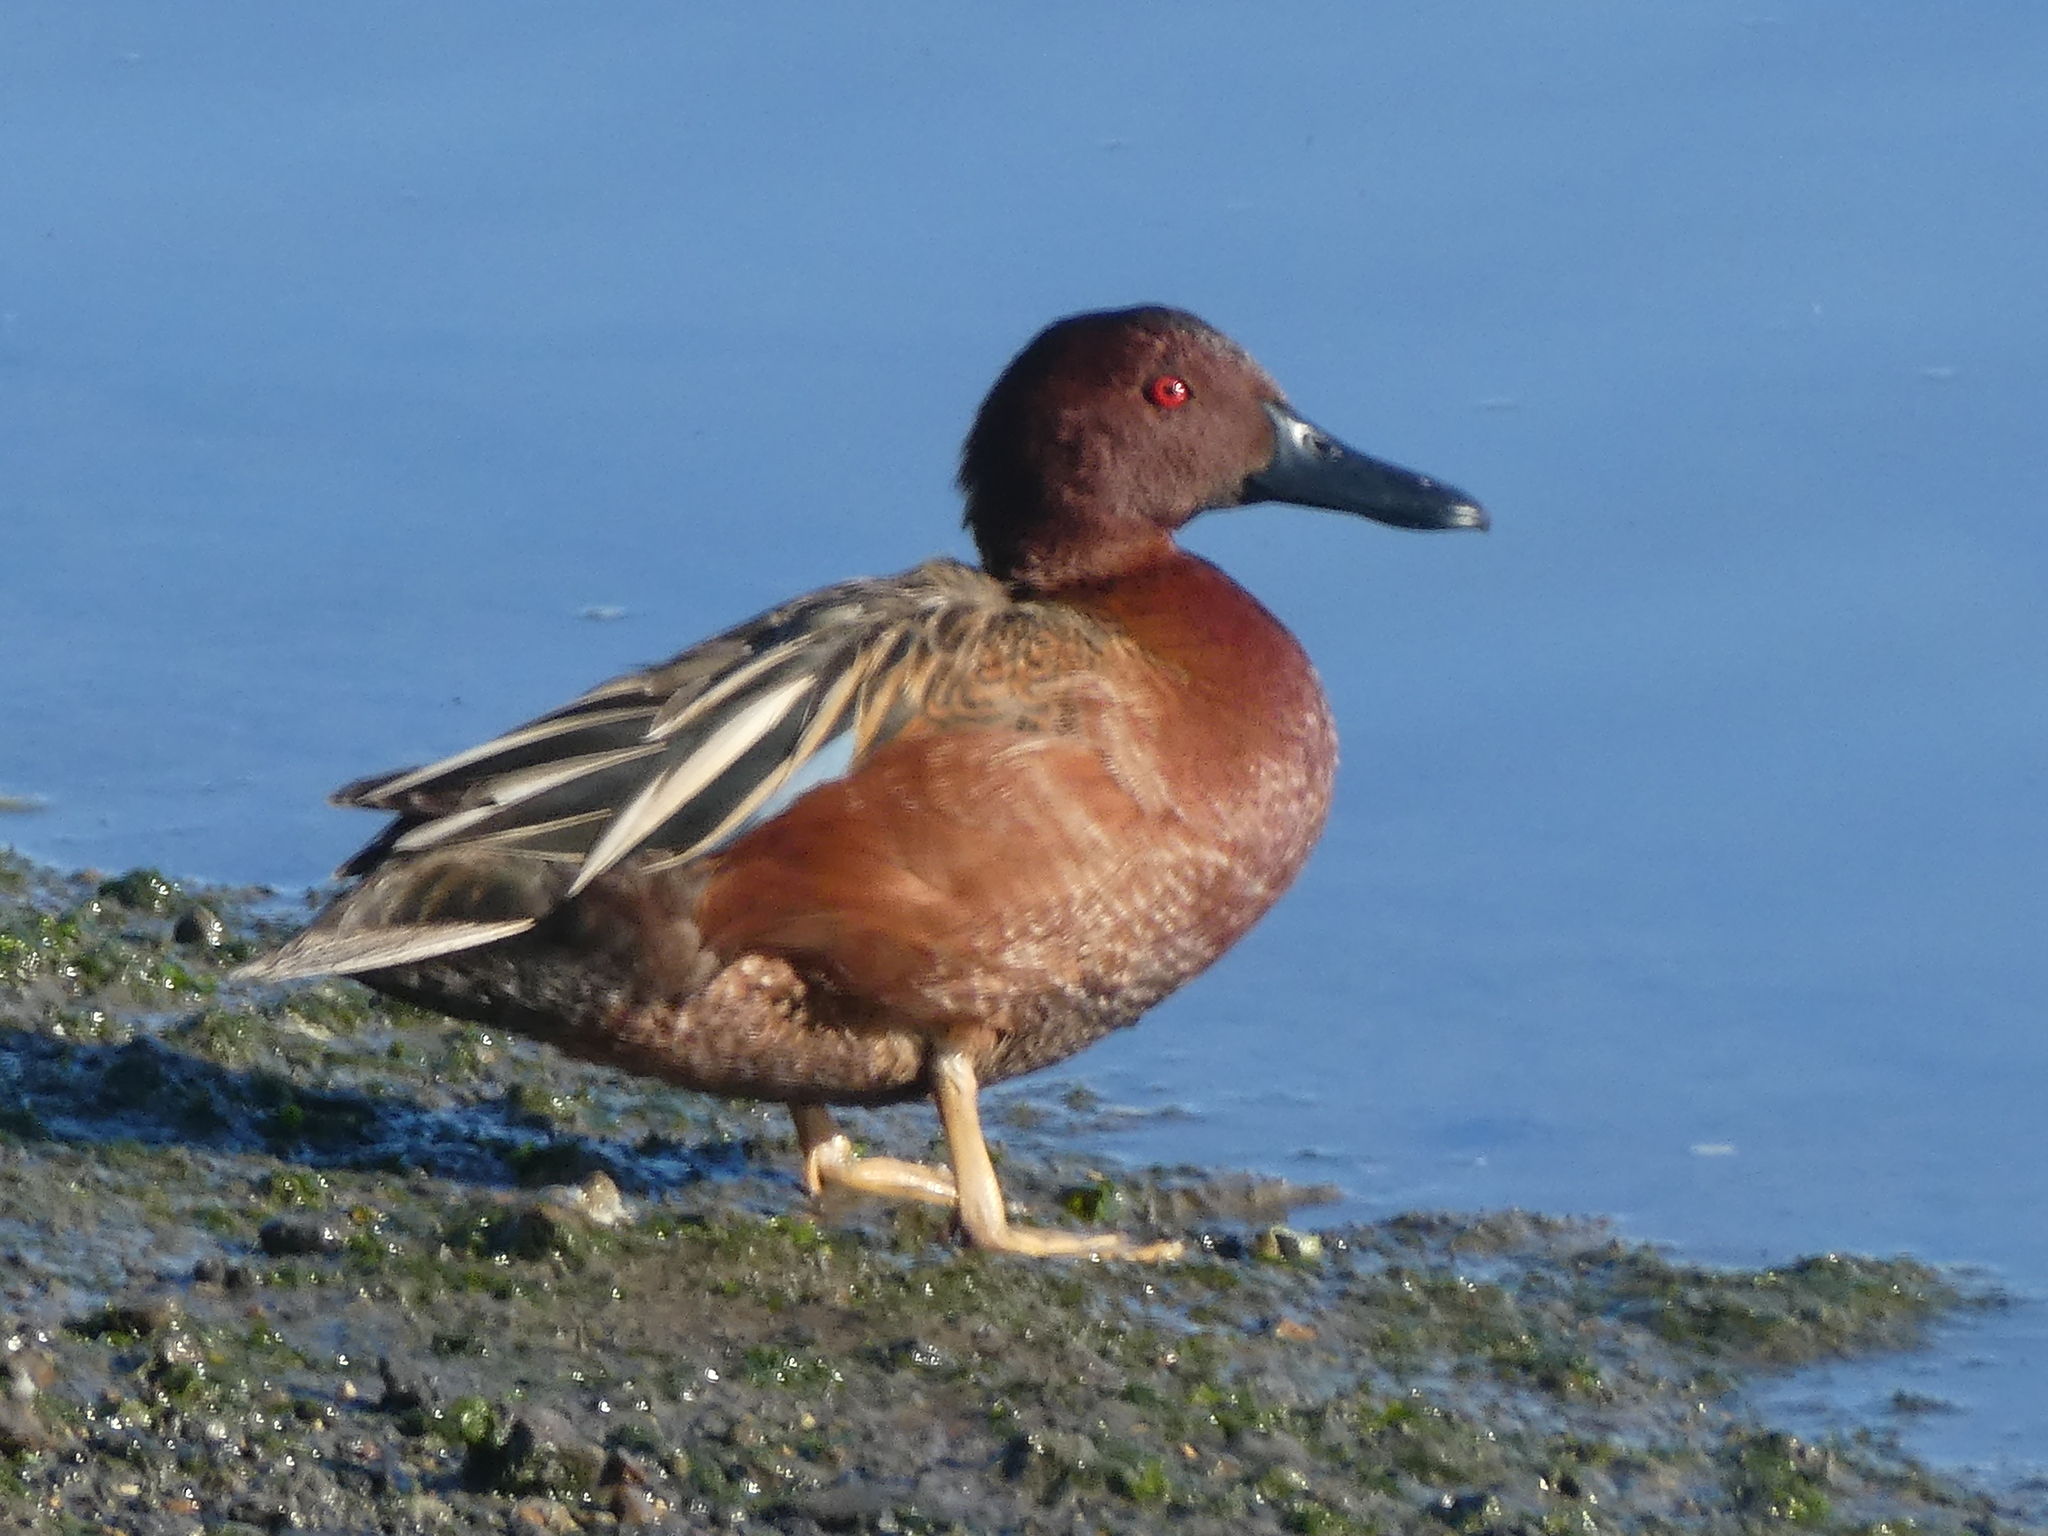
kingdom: Animalia
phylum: Chordata
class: Aves
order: Anseriformes
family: Anatidae
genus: Spatula
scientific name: Spatula cyanoptera
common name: Cinnamon teal
